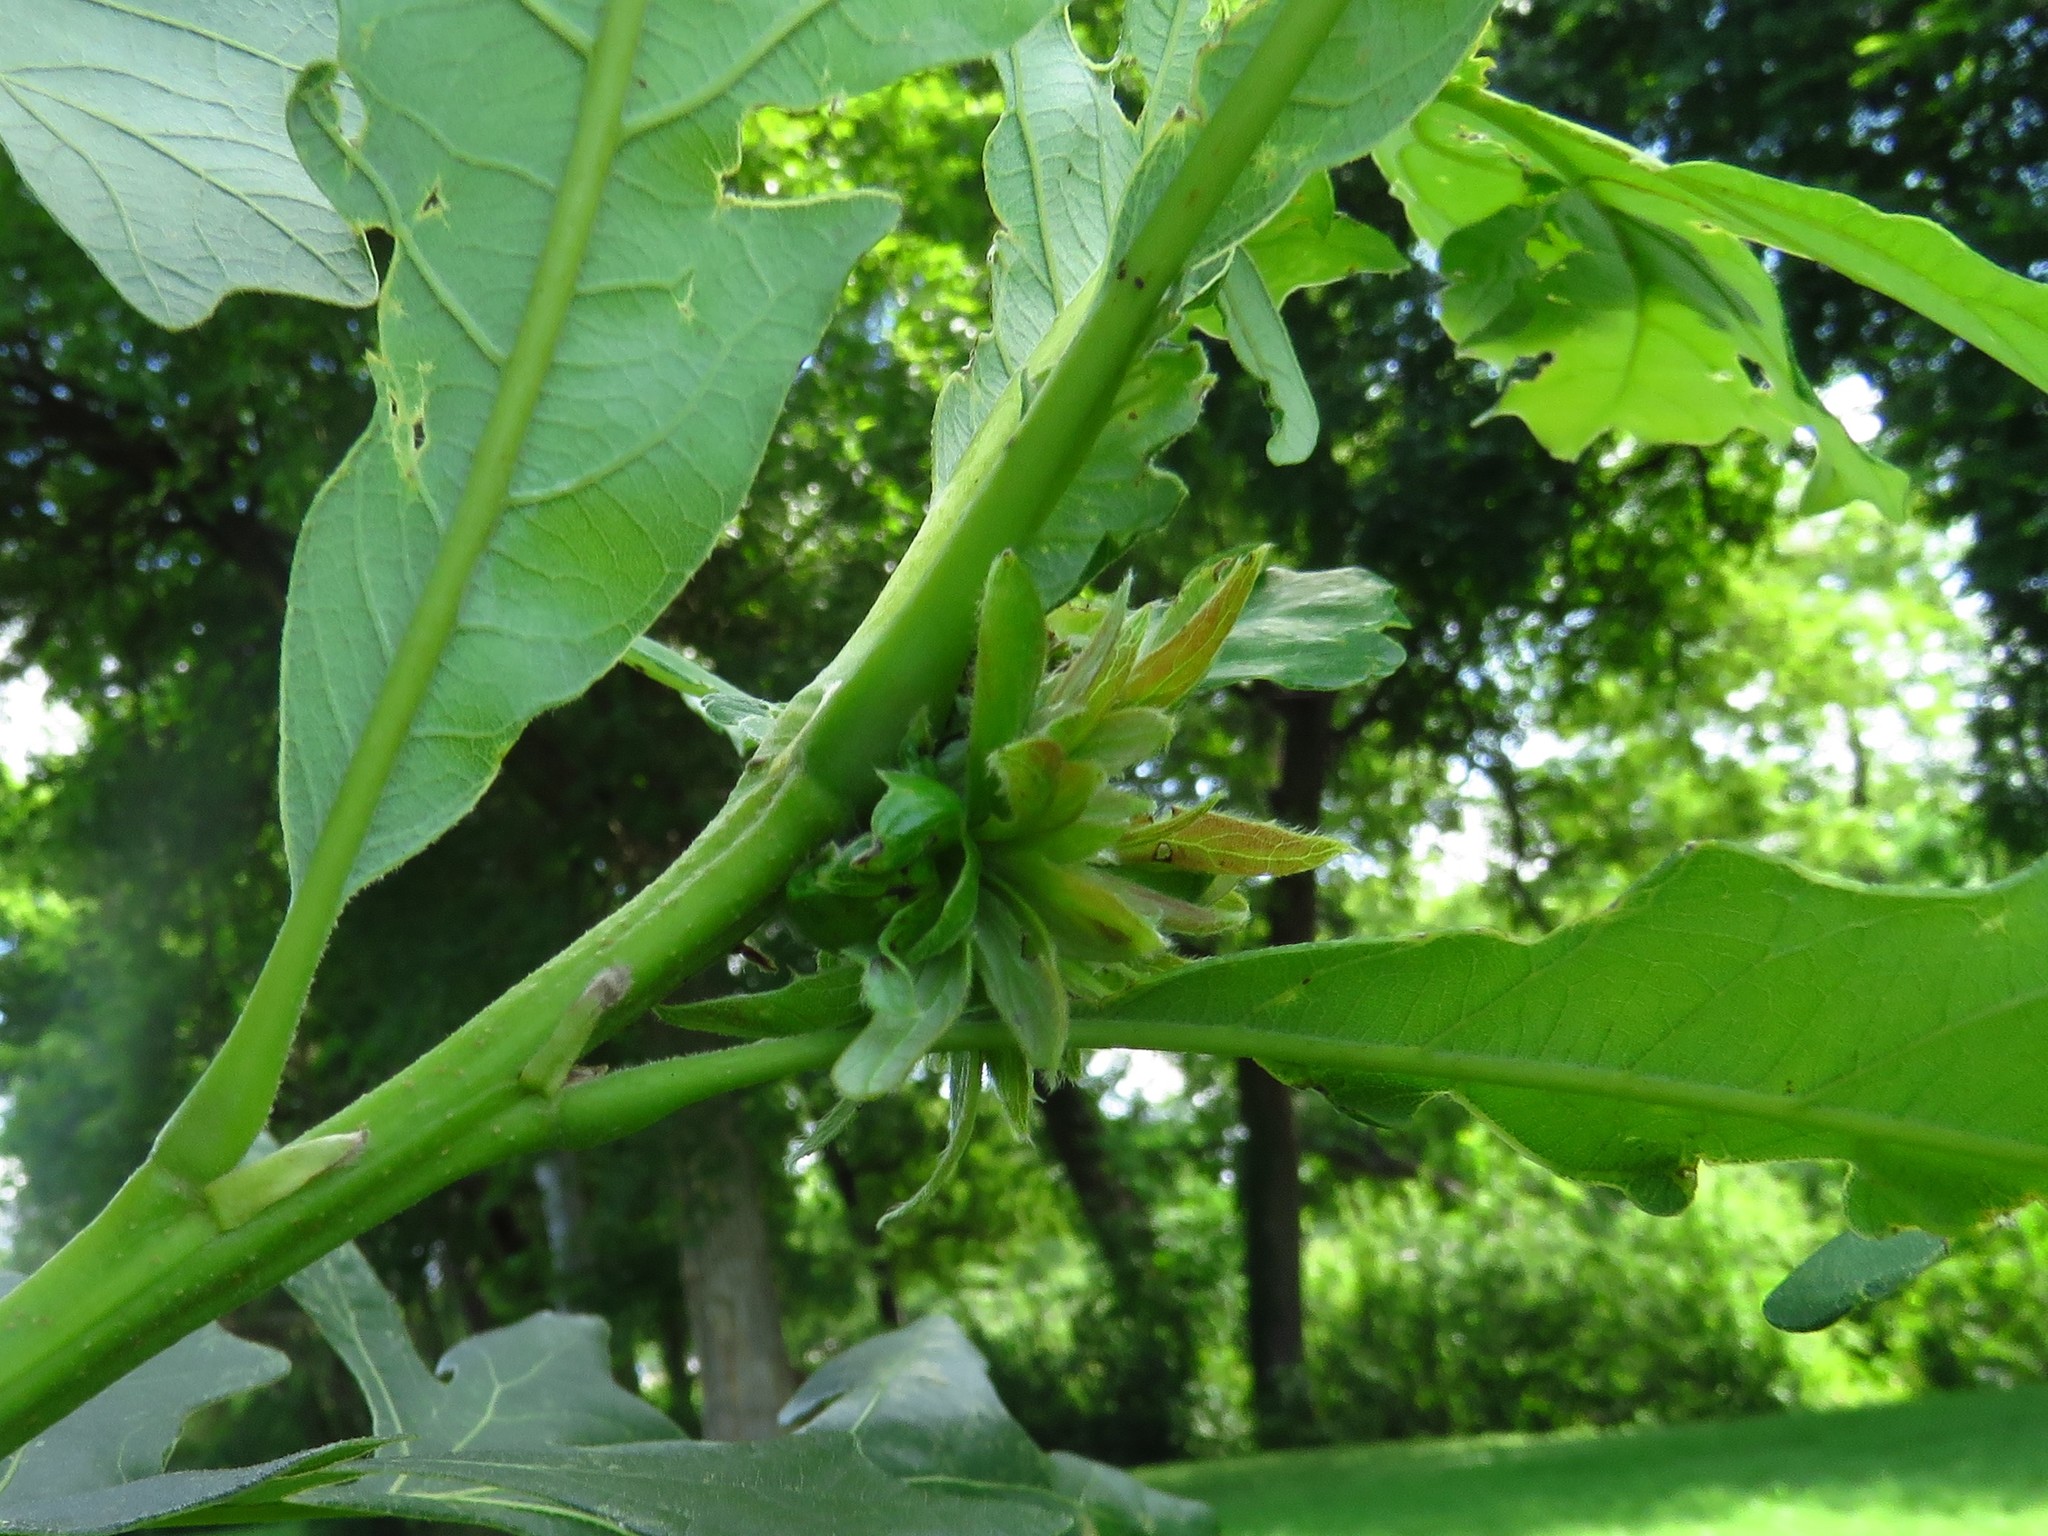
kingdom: Animalia
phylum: Arthropoda
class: Insecta
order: Hymenoptera
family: Cynipidae
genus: Andricus
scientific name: Andricus
